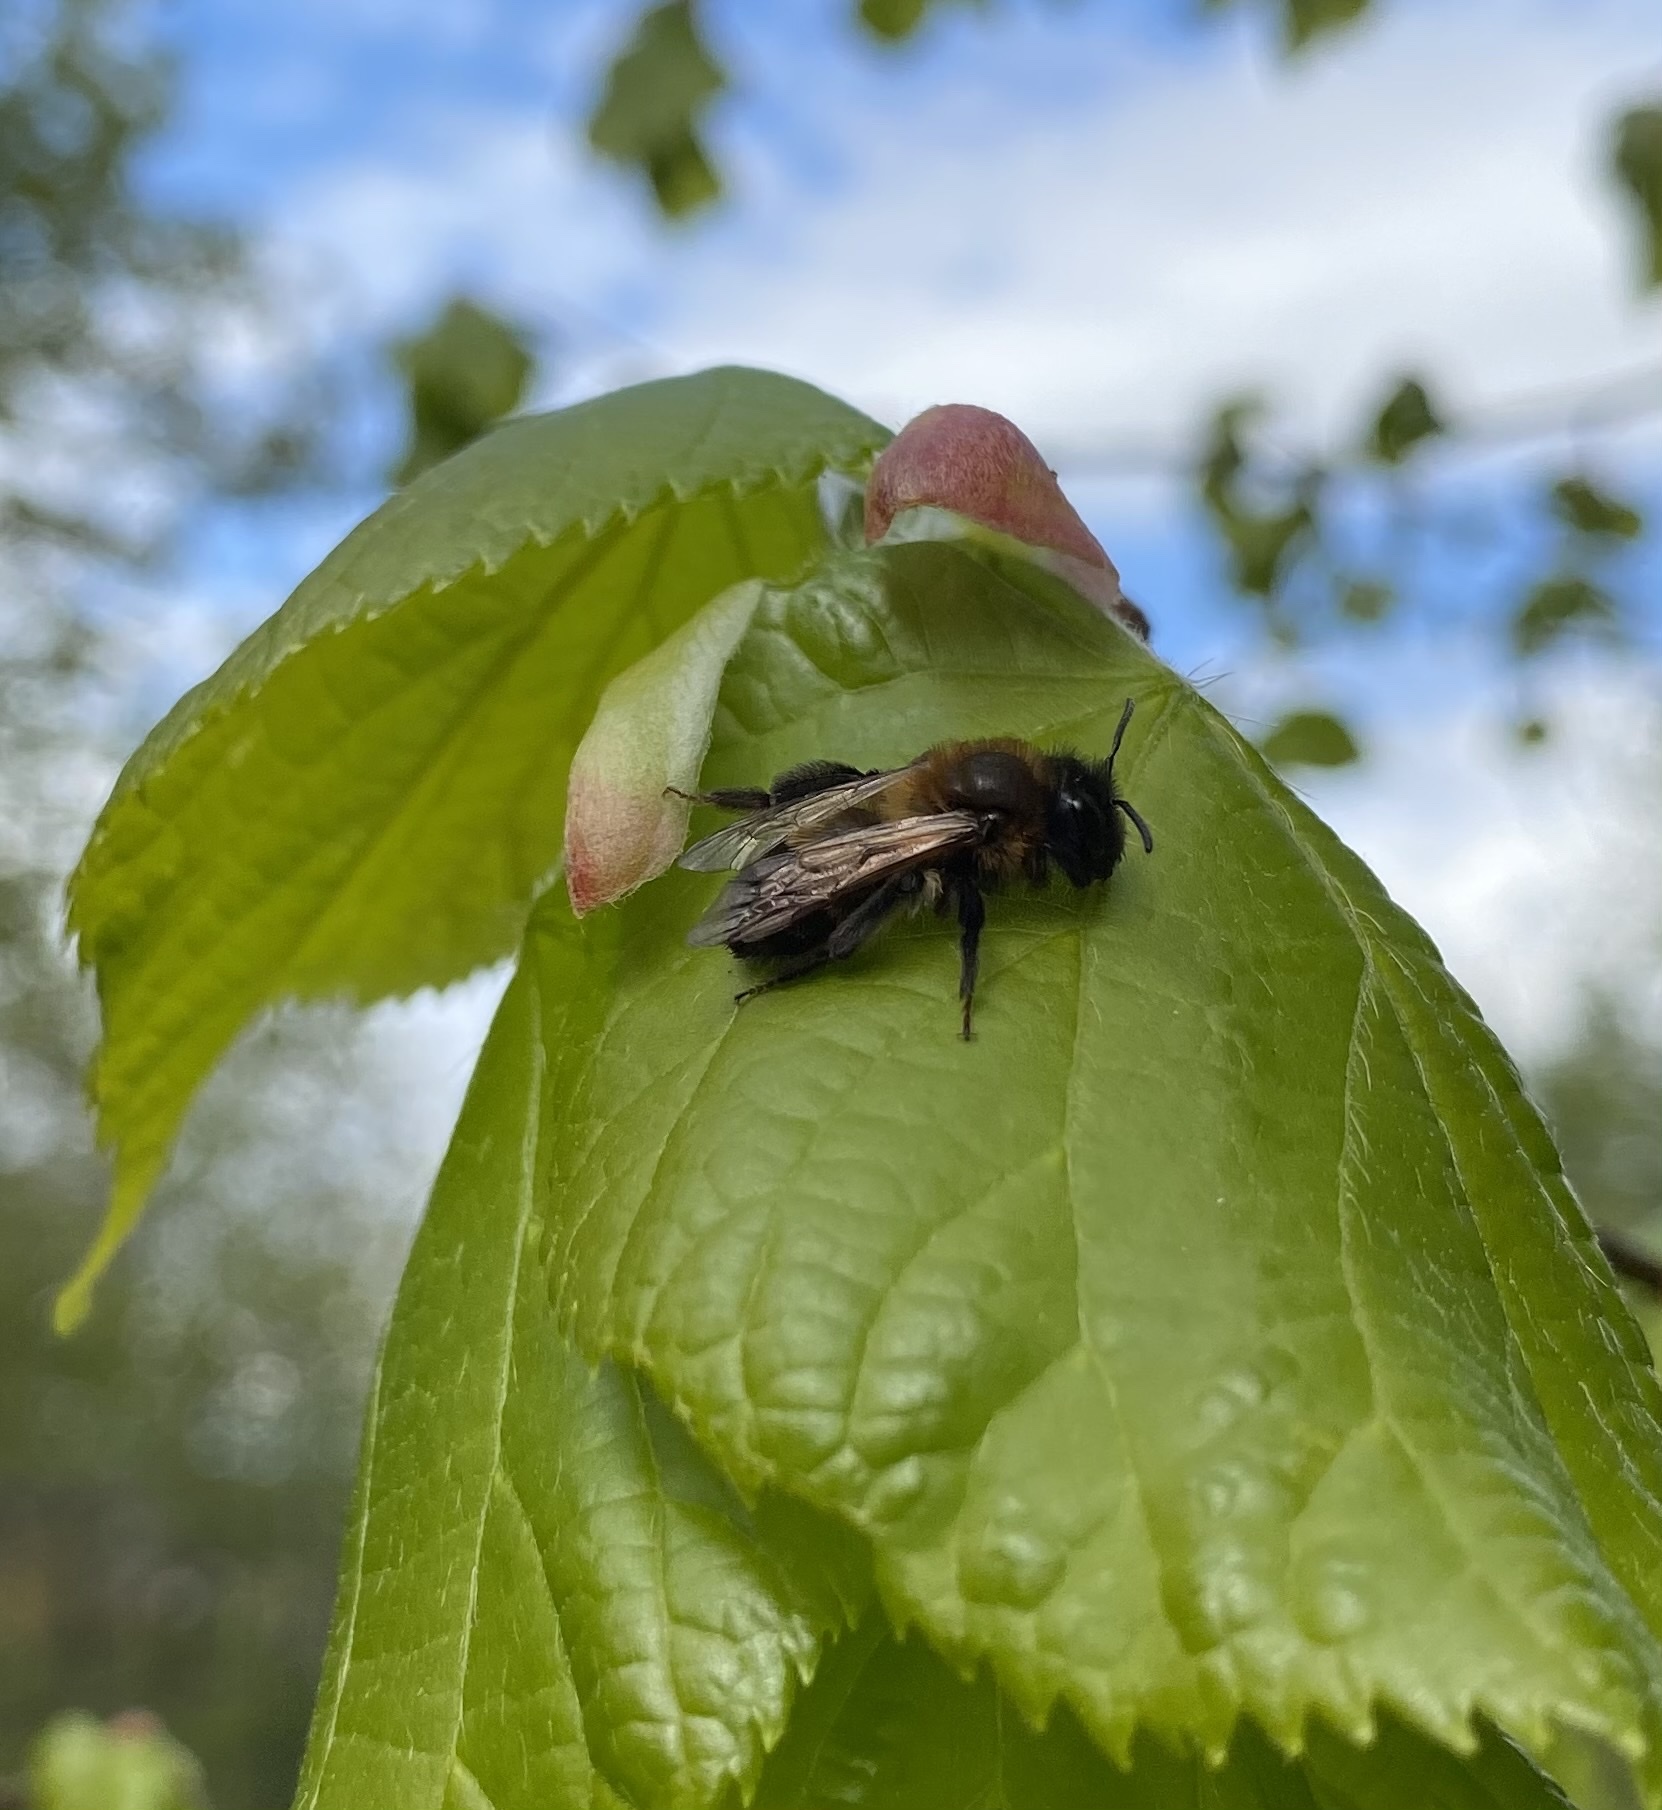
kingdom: Animalia
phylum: Arthropoda
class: Insecta
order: Hymenoptera
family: Andrenidae
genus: Andrena
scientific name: Andrena carantonica
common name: Chocolate mining bee
